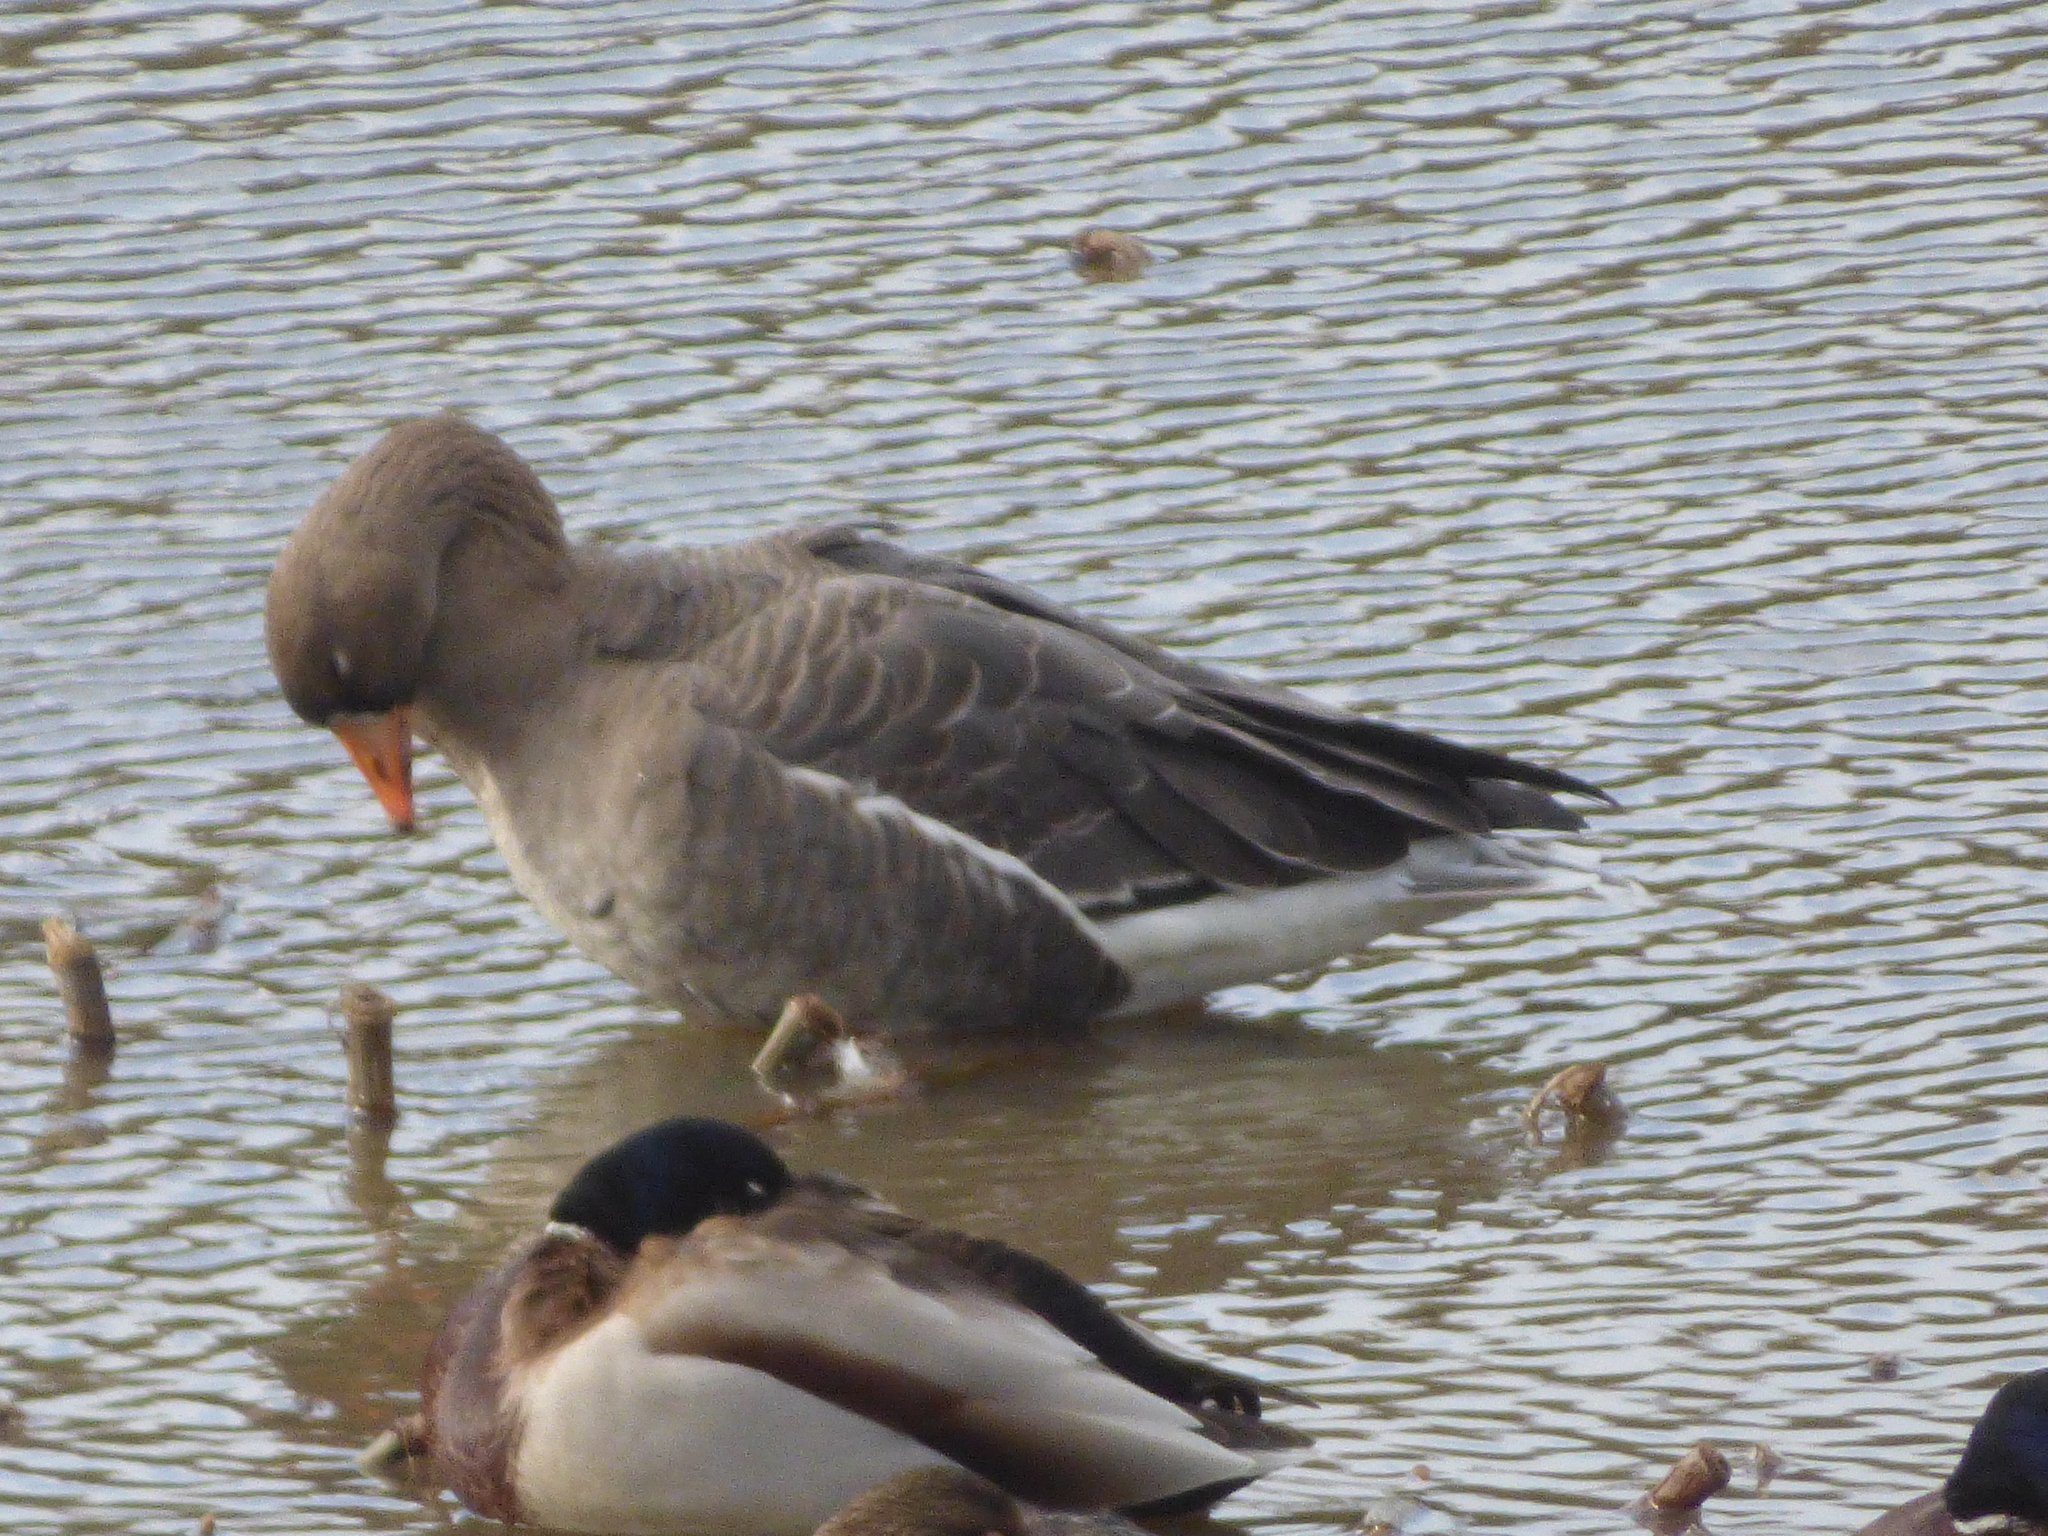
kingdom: Animalia
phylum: Chordata
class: Aves
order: Anseriformes
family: Anatidae
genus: Anser
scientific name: Anser albifrons
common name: Greater white-fronted goose
